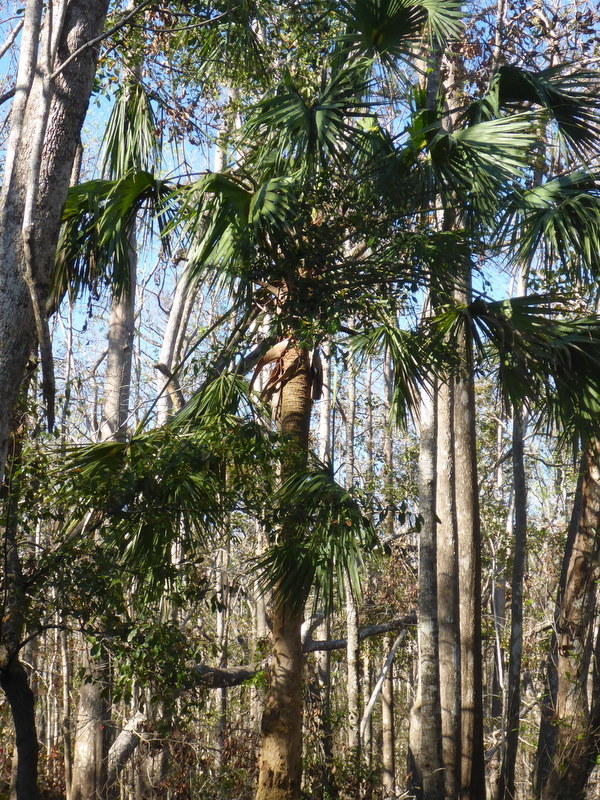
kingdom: Plantae
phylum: Tracheophyta
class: Liliopsida
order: Arecales
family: Arecaceae
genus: Sabal
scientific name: Sabal palmetto
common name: Blue palmetto
